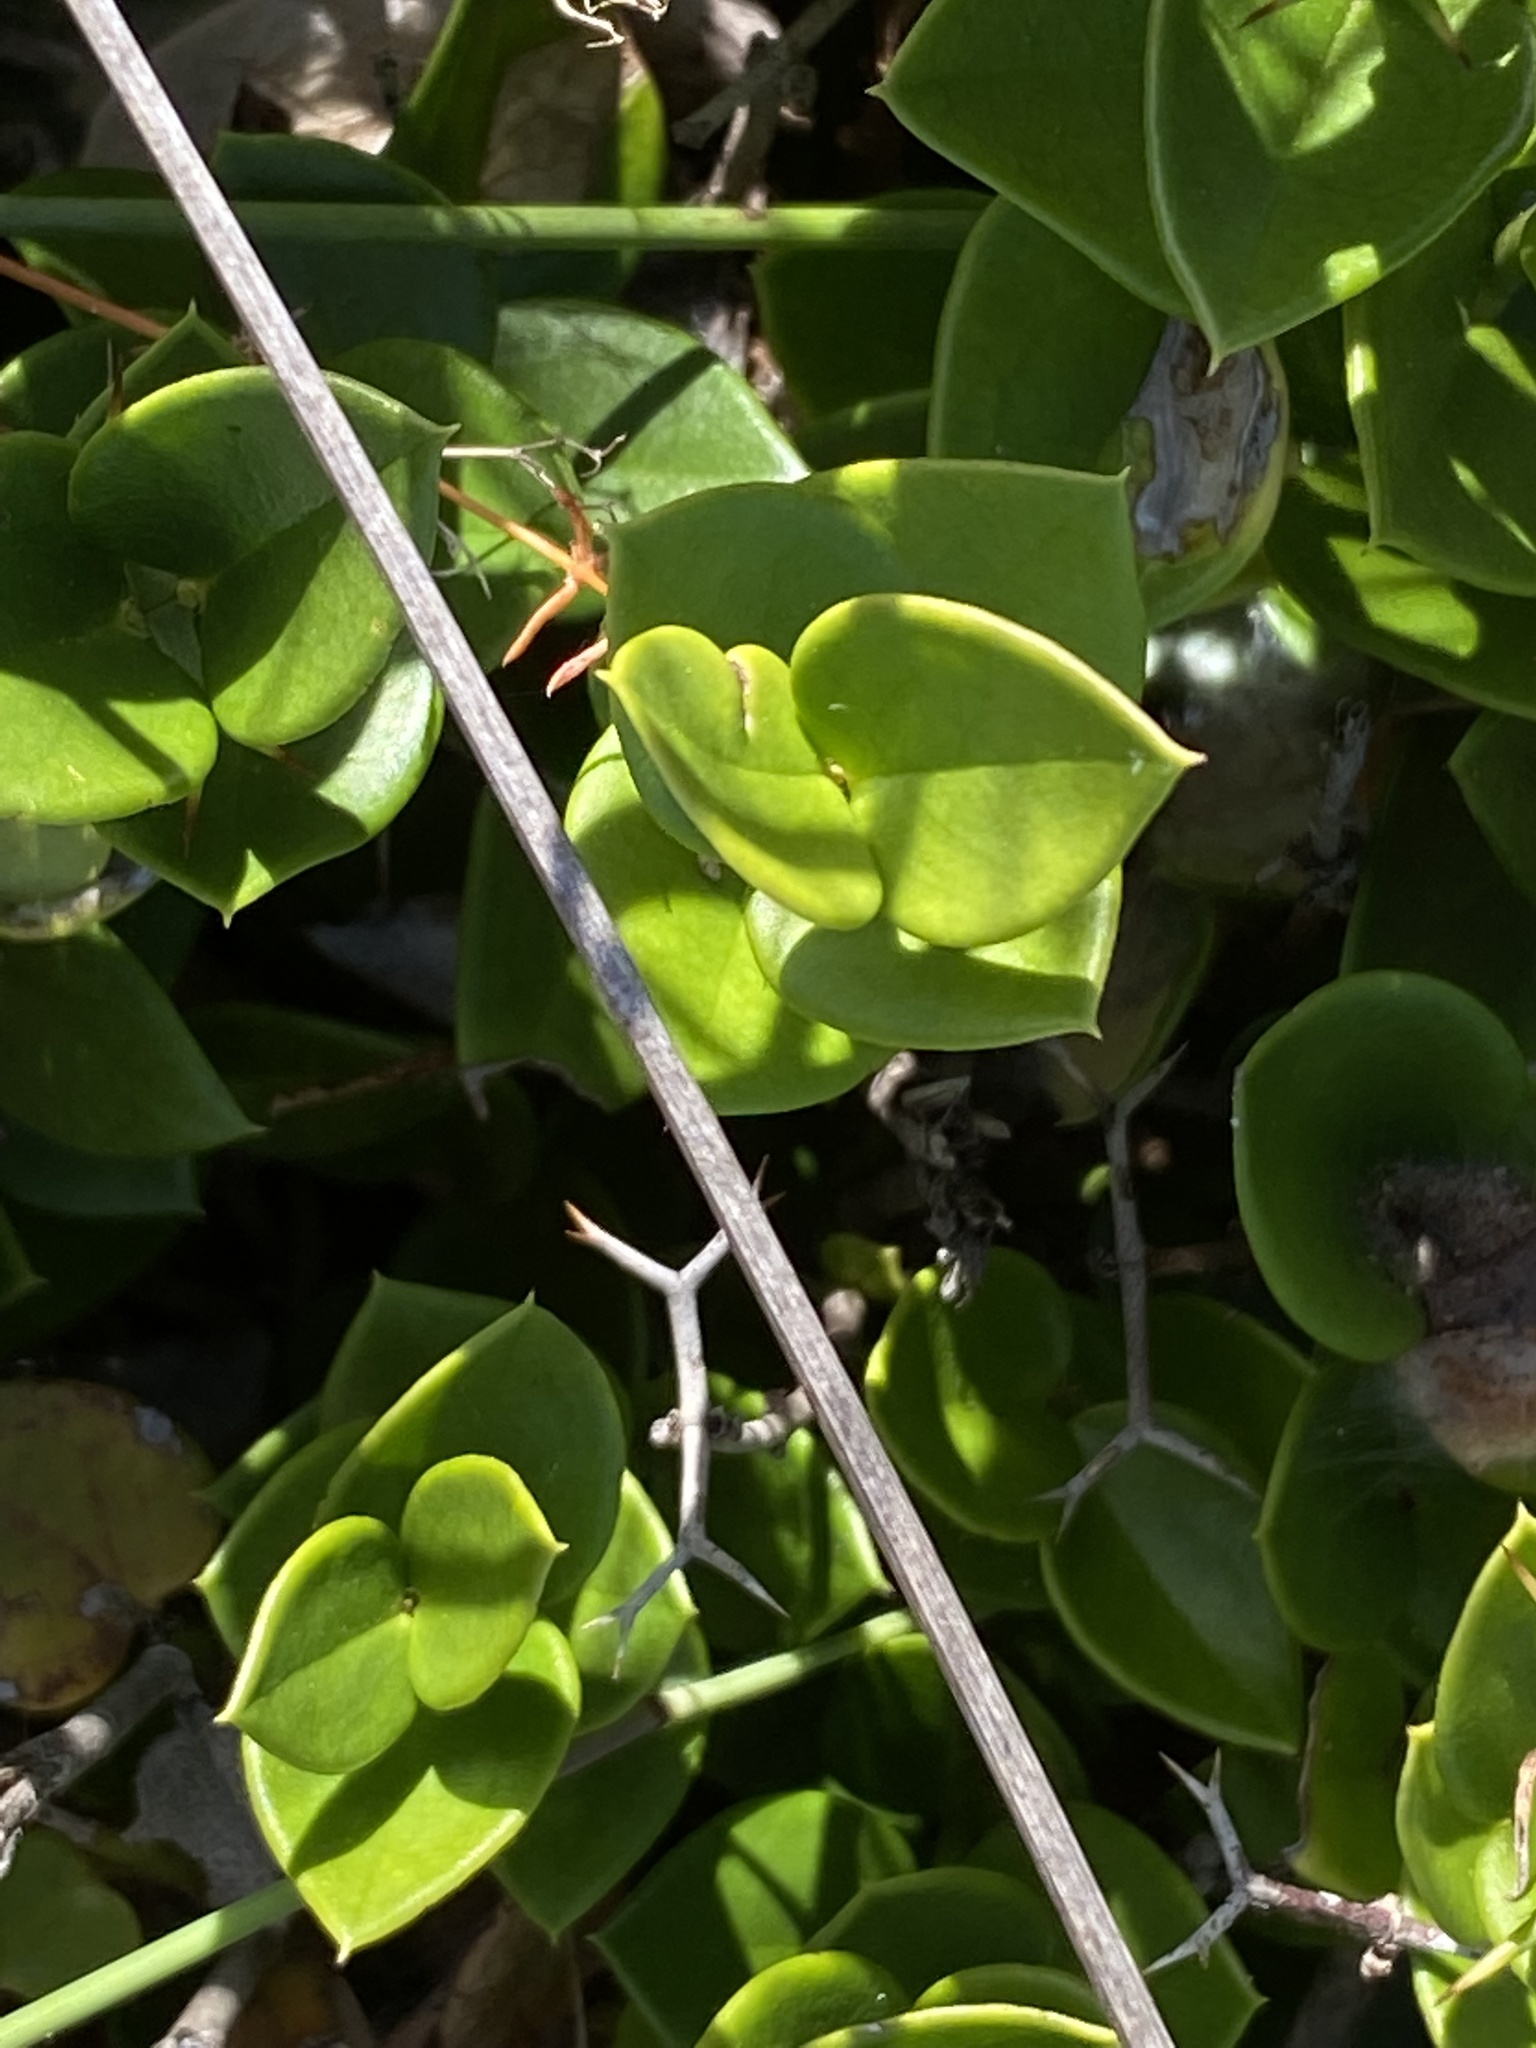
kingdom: Plantae
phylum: Tracheophyta
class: Magnoliopsida
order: Gentianales
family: Apocynaceae
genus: Carissa
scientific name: Carissa bispinosa
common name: Forest num-num
